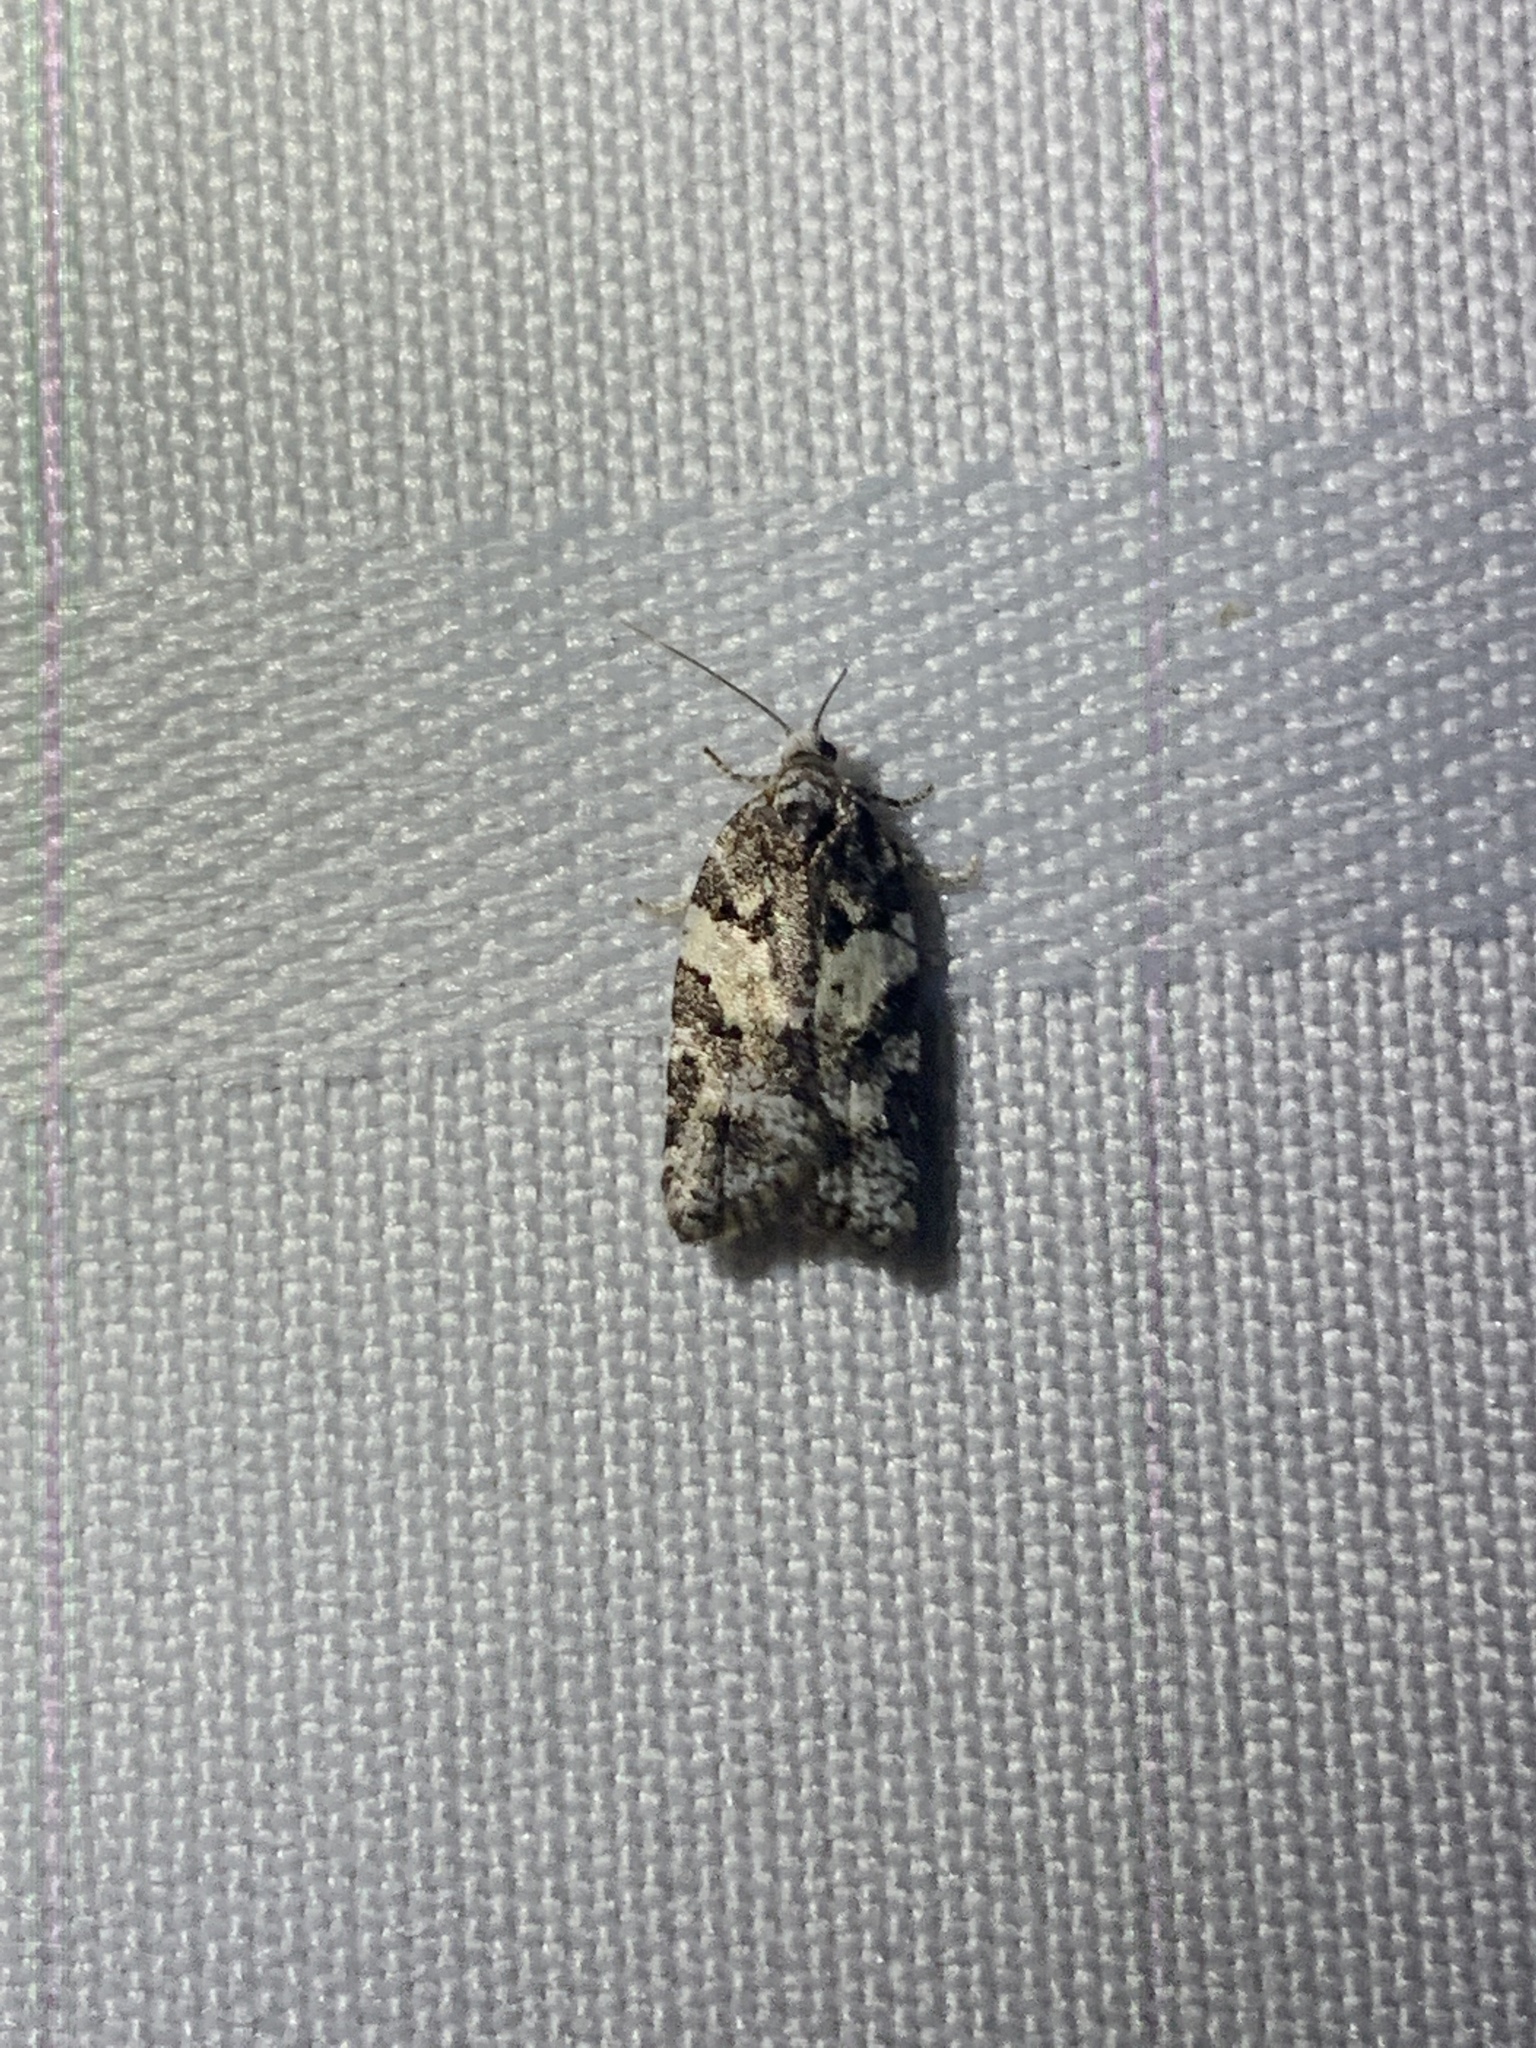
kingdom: Animalia
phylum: Arthropoda
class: Insecta
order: Lepidoptera
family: Tortricidae
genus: Acleris
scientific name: Acleris gloveranus
